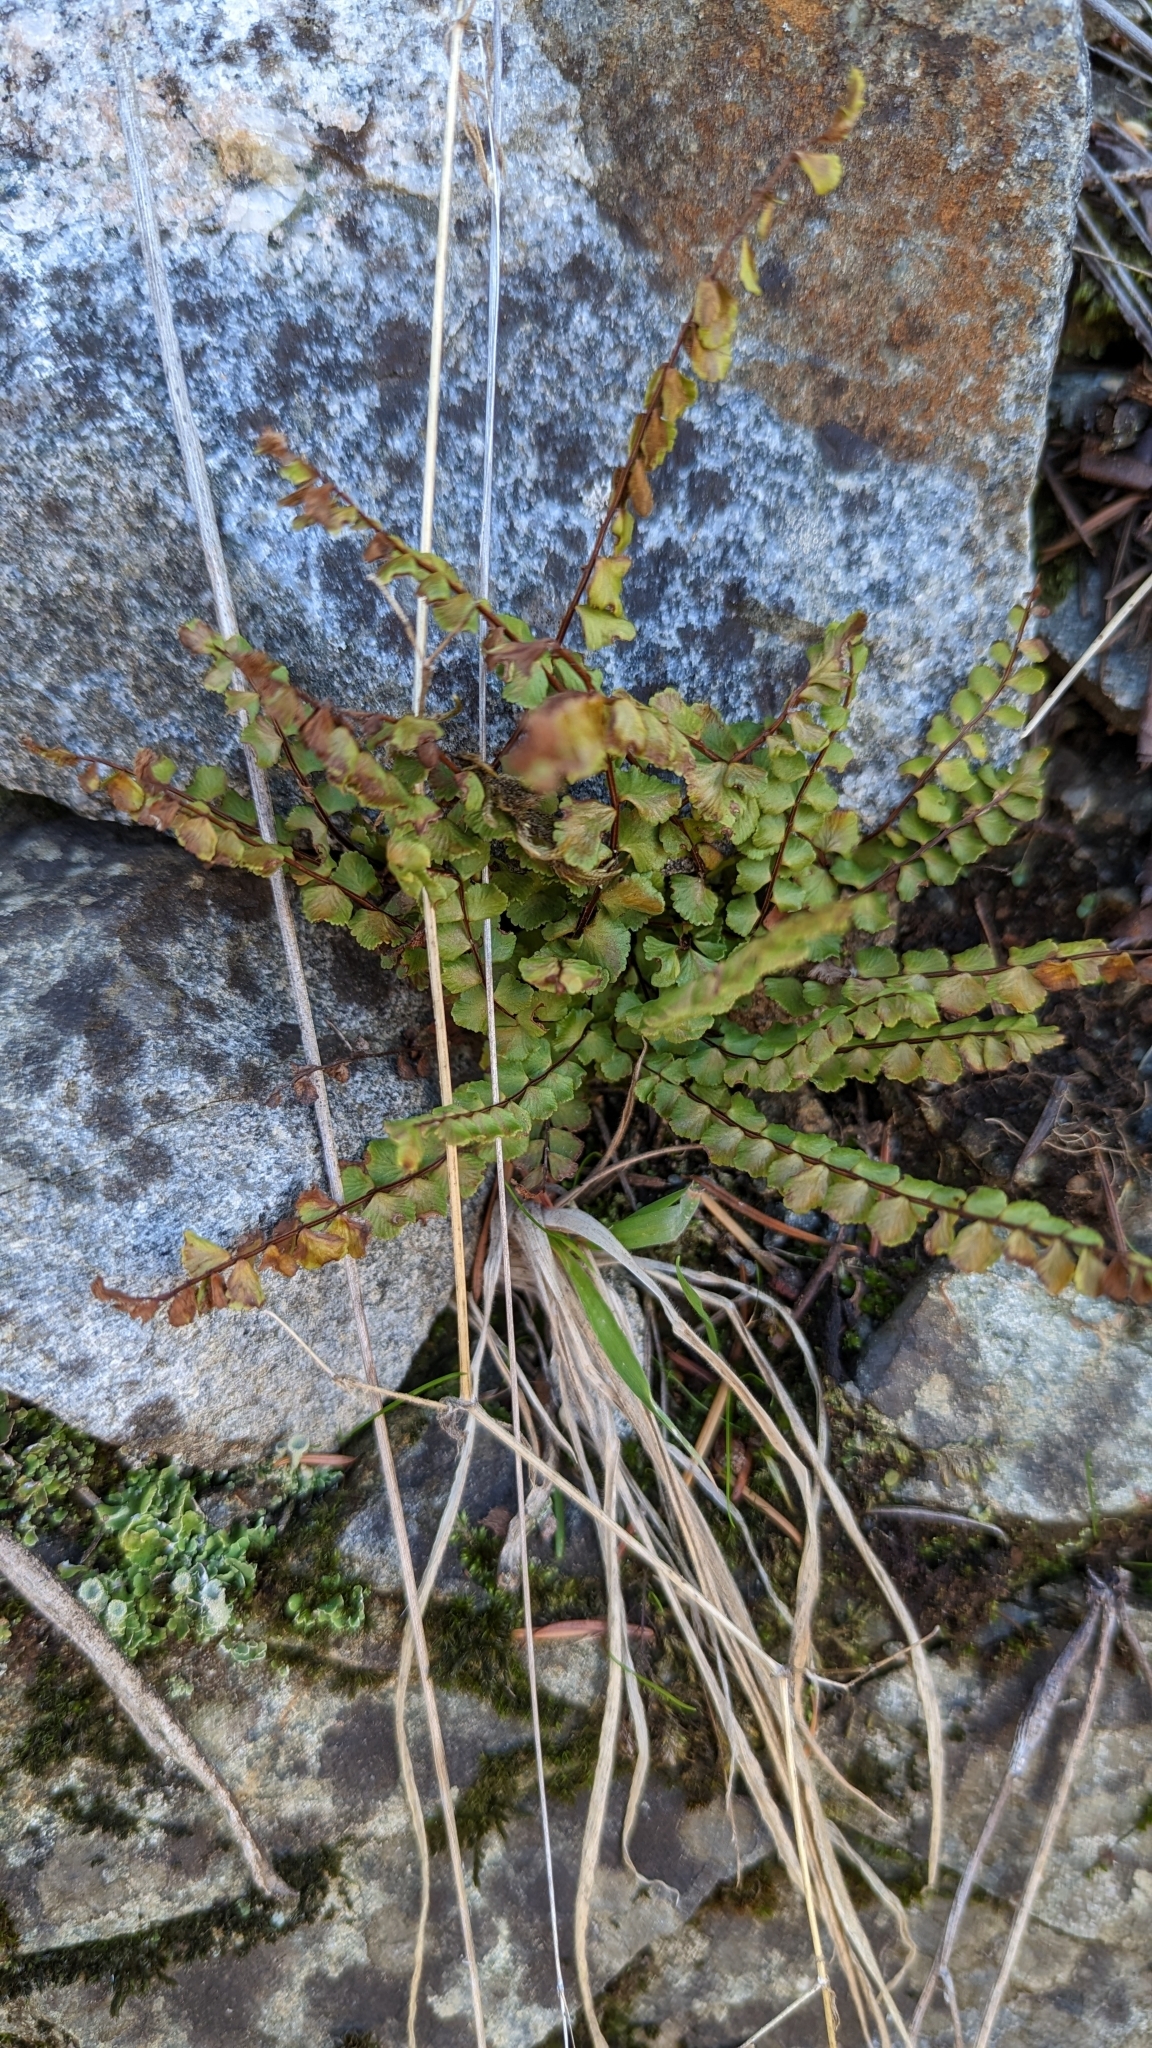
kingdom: Plantae
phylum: Tracheophyta
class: Polypodiopsida
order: Polypodiales
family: Aspleniaceae
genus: Asplenium
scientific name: Asplenium trichomanes
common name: Maidenhair spleenwort
